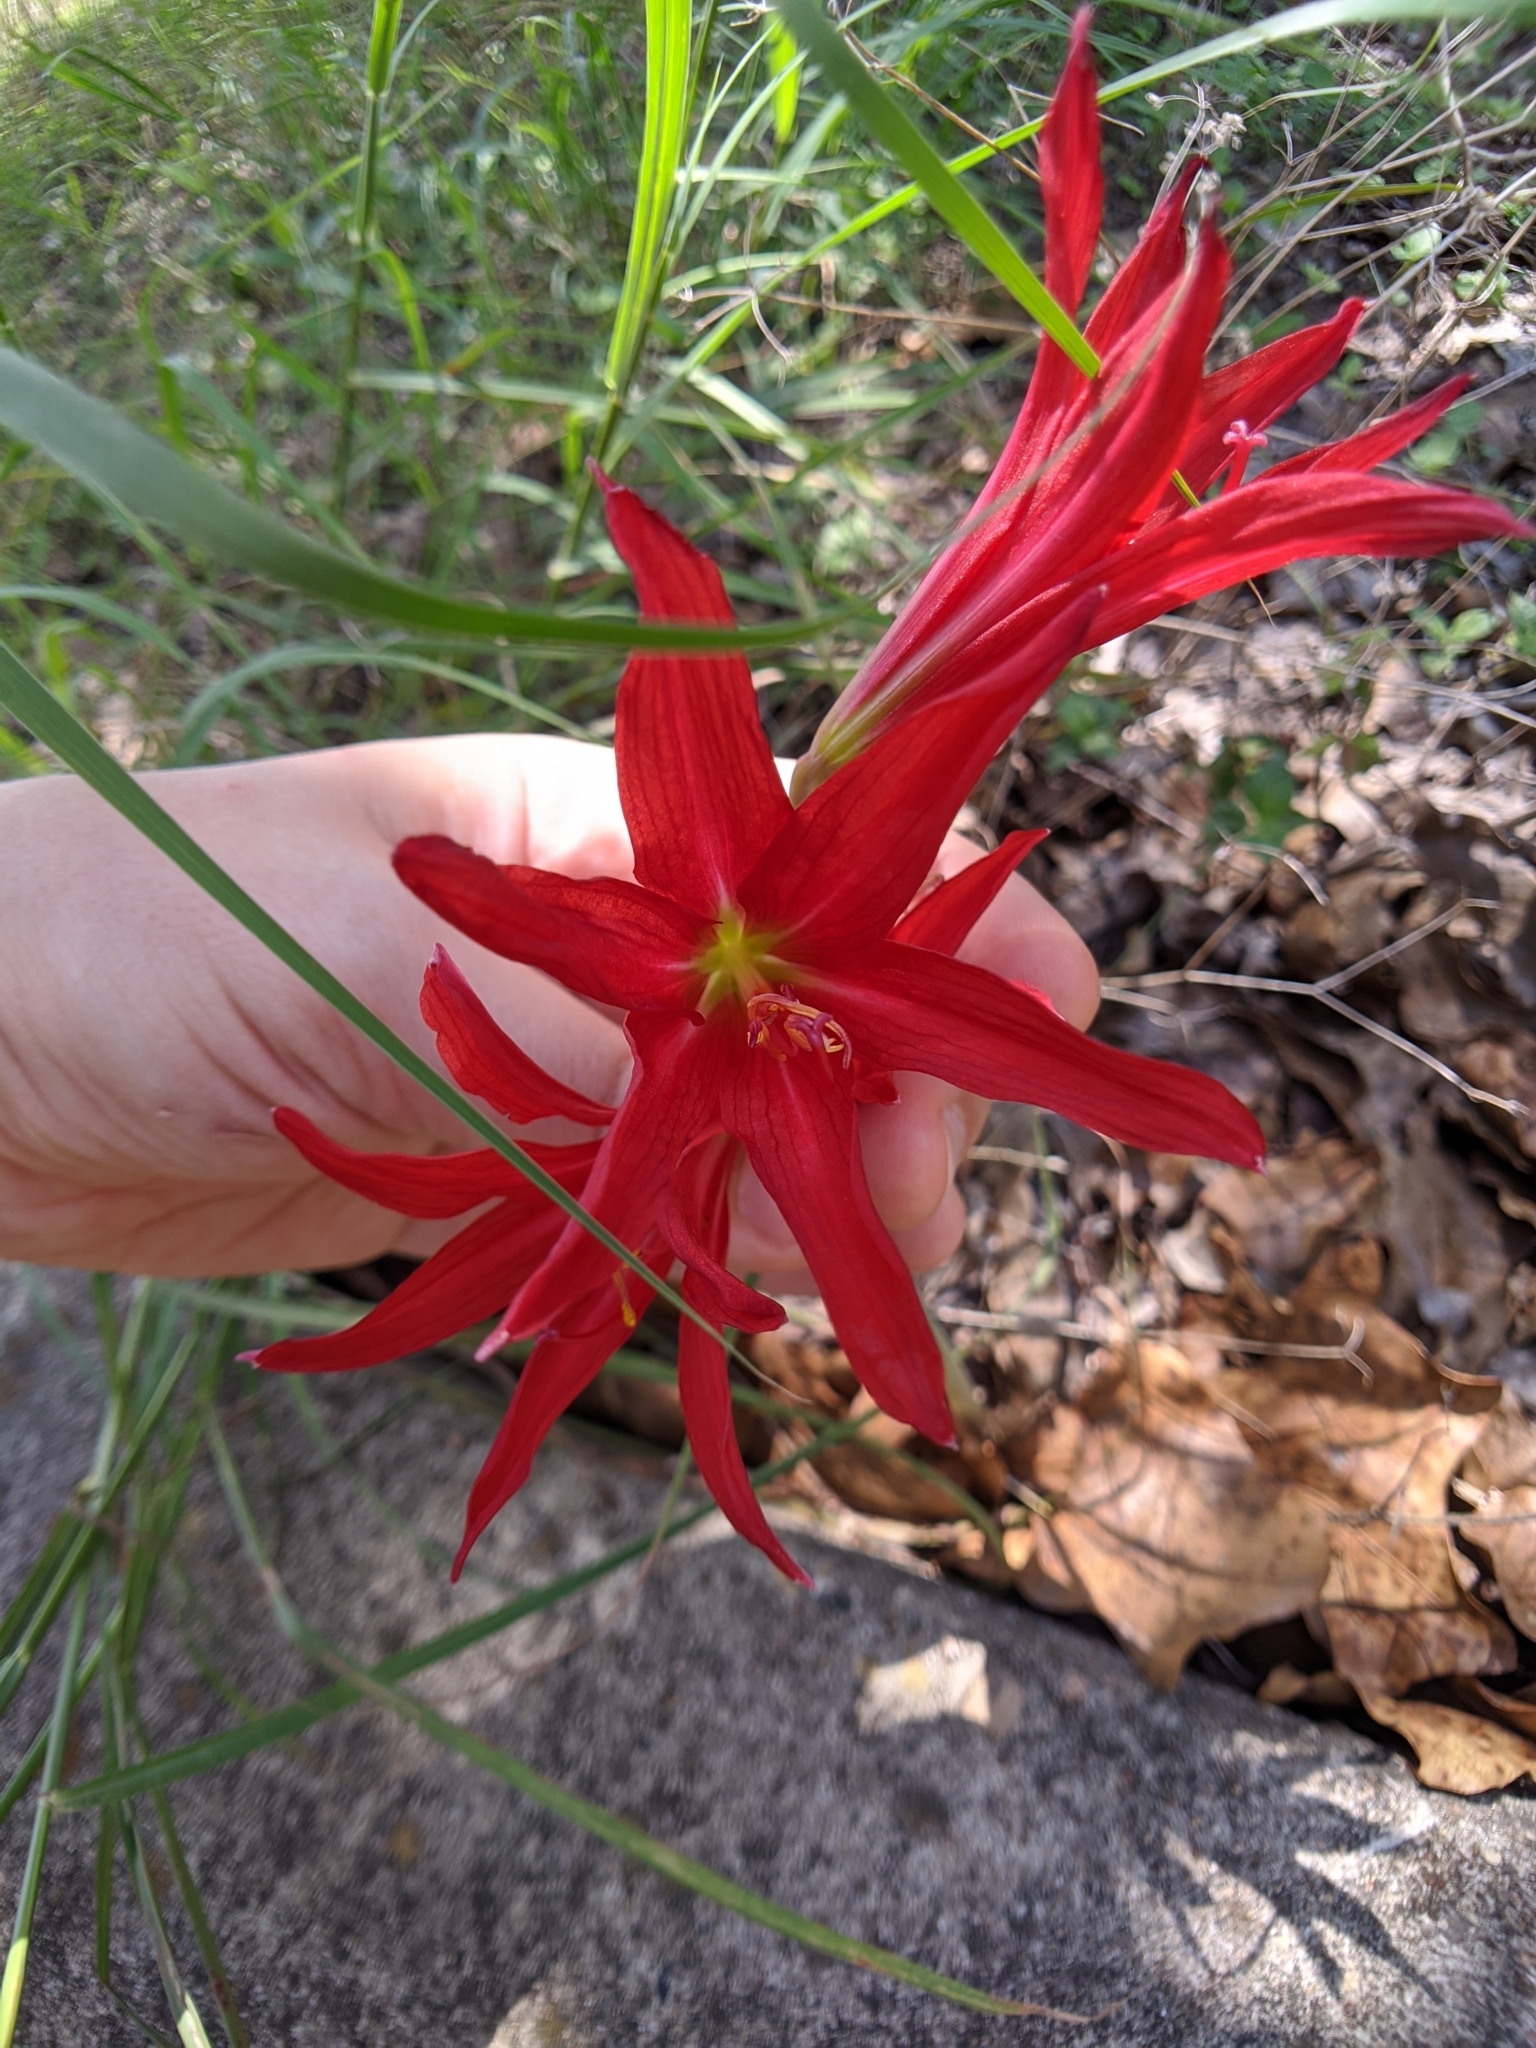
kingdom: Plantae
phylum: Tracheophyta
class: Liliopsida
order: Asparagales
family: Amaryllidaceae
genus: Zephyranthes
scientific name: Zephyranthes bifida
